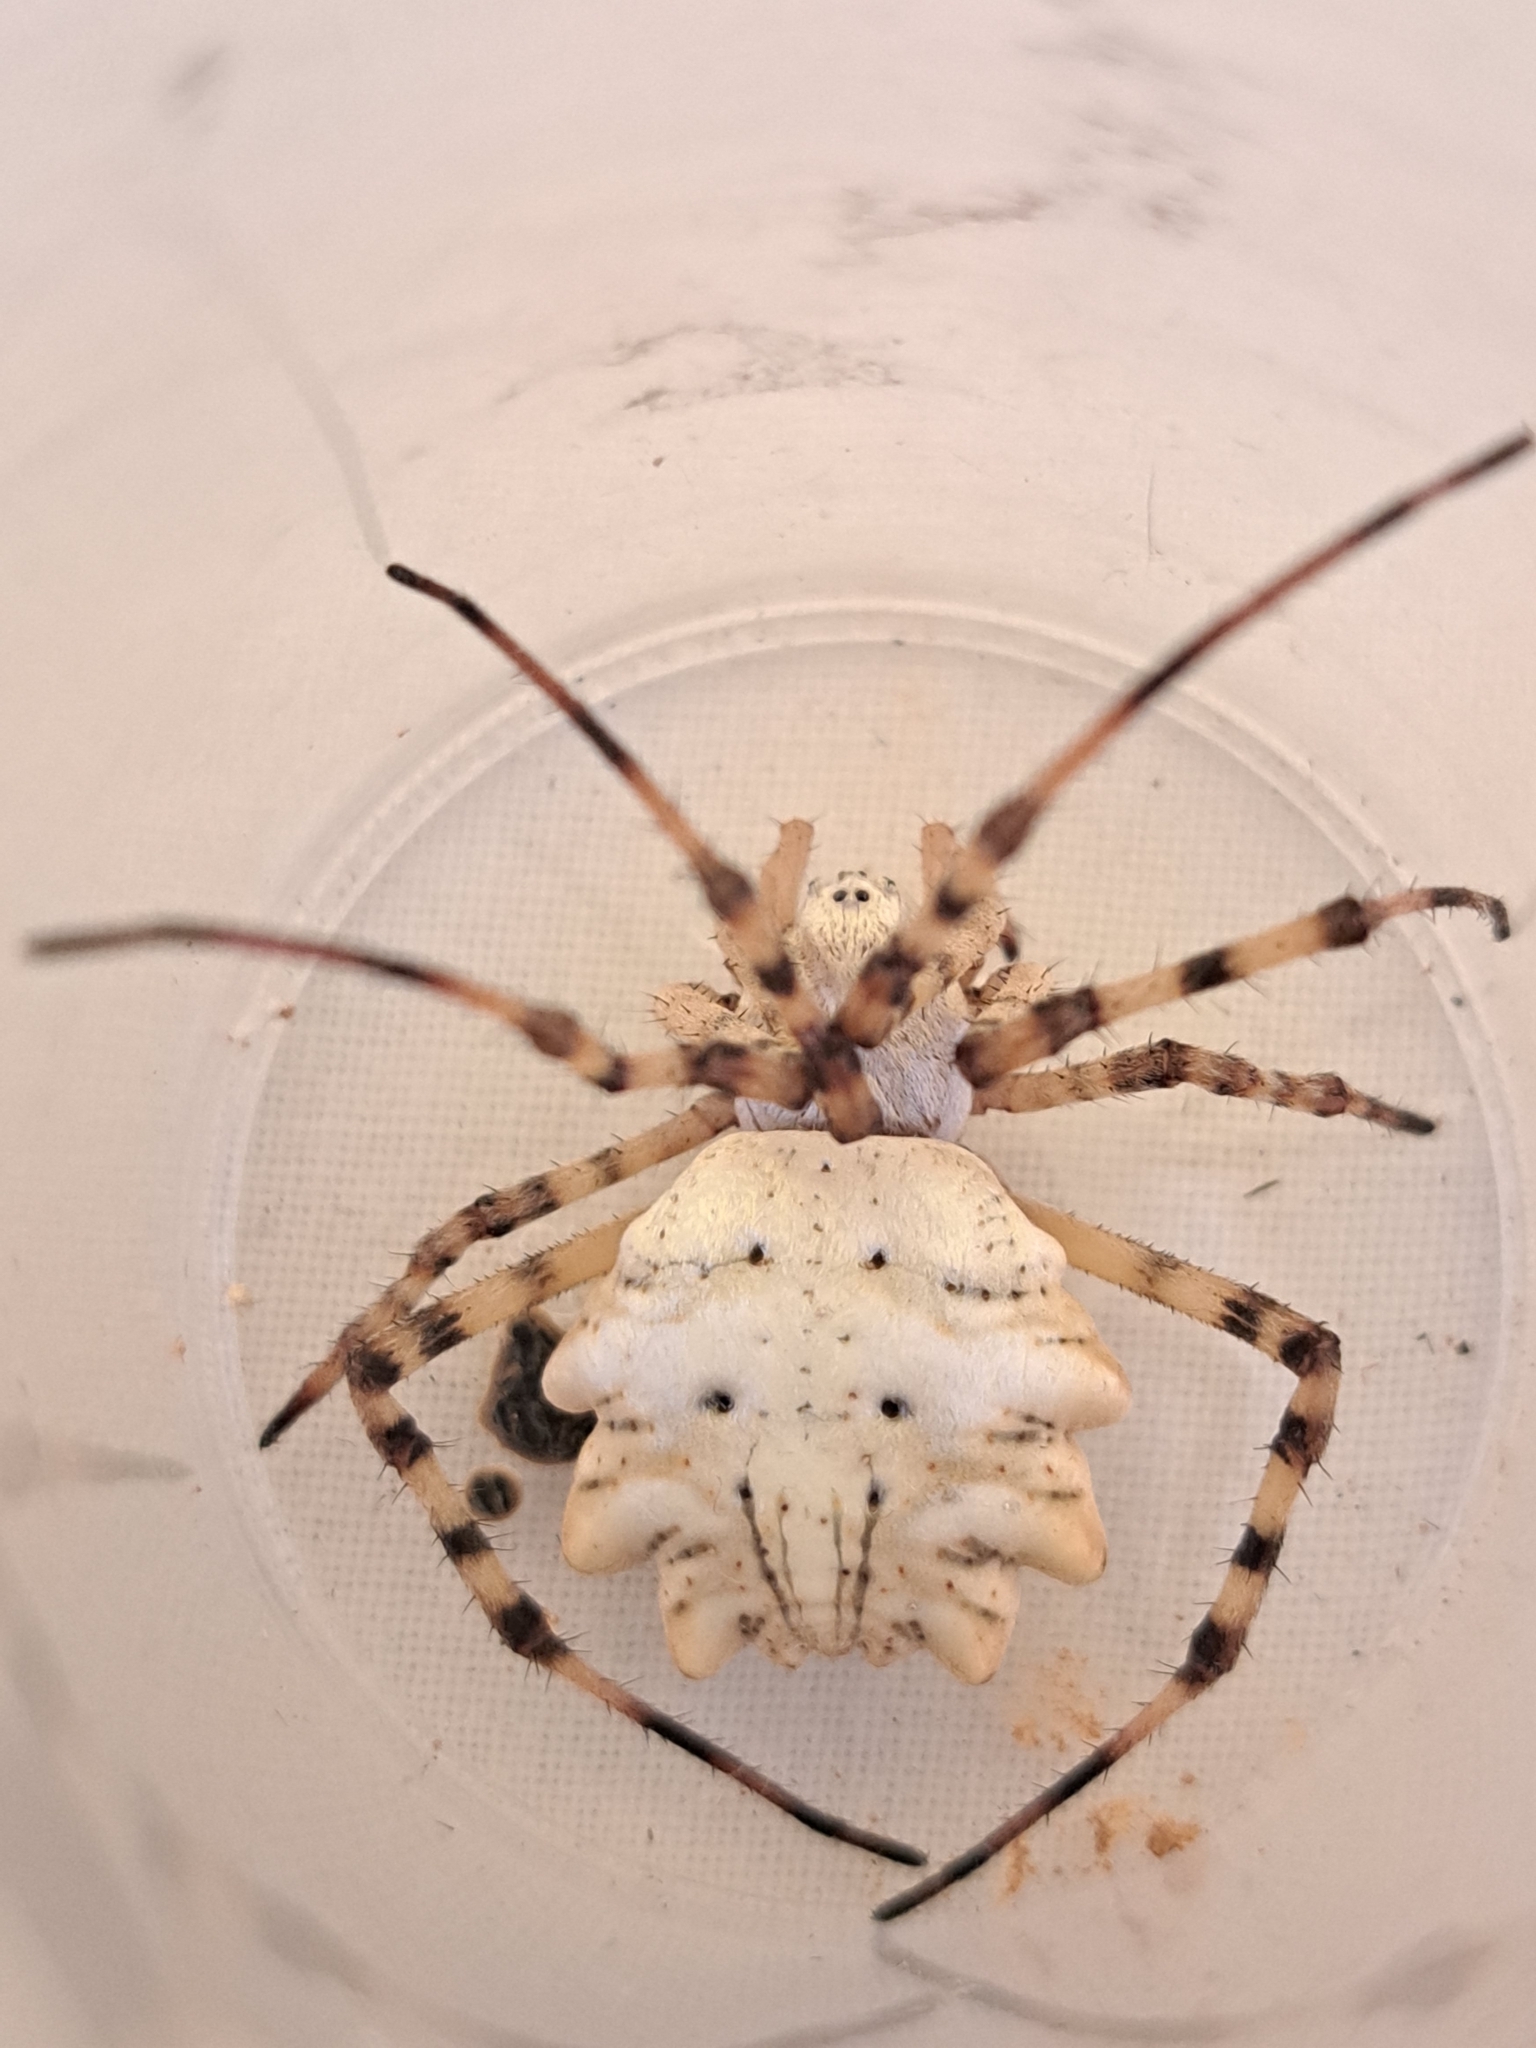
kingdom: Animalia
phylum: Arthropoda
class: Arachnida
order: Araneae
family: Araneidae
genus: Argiope
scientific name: Argiope lobata
